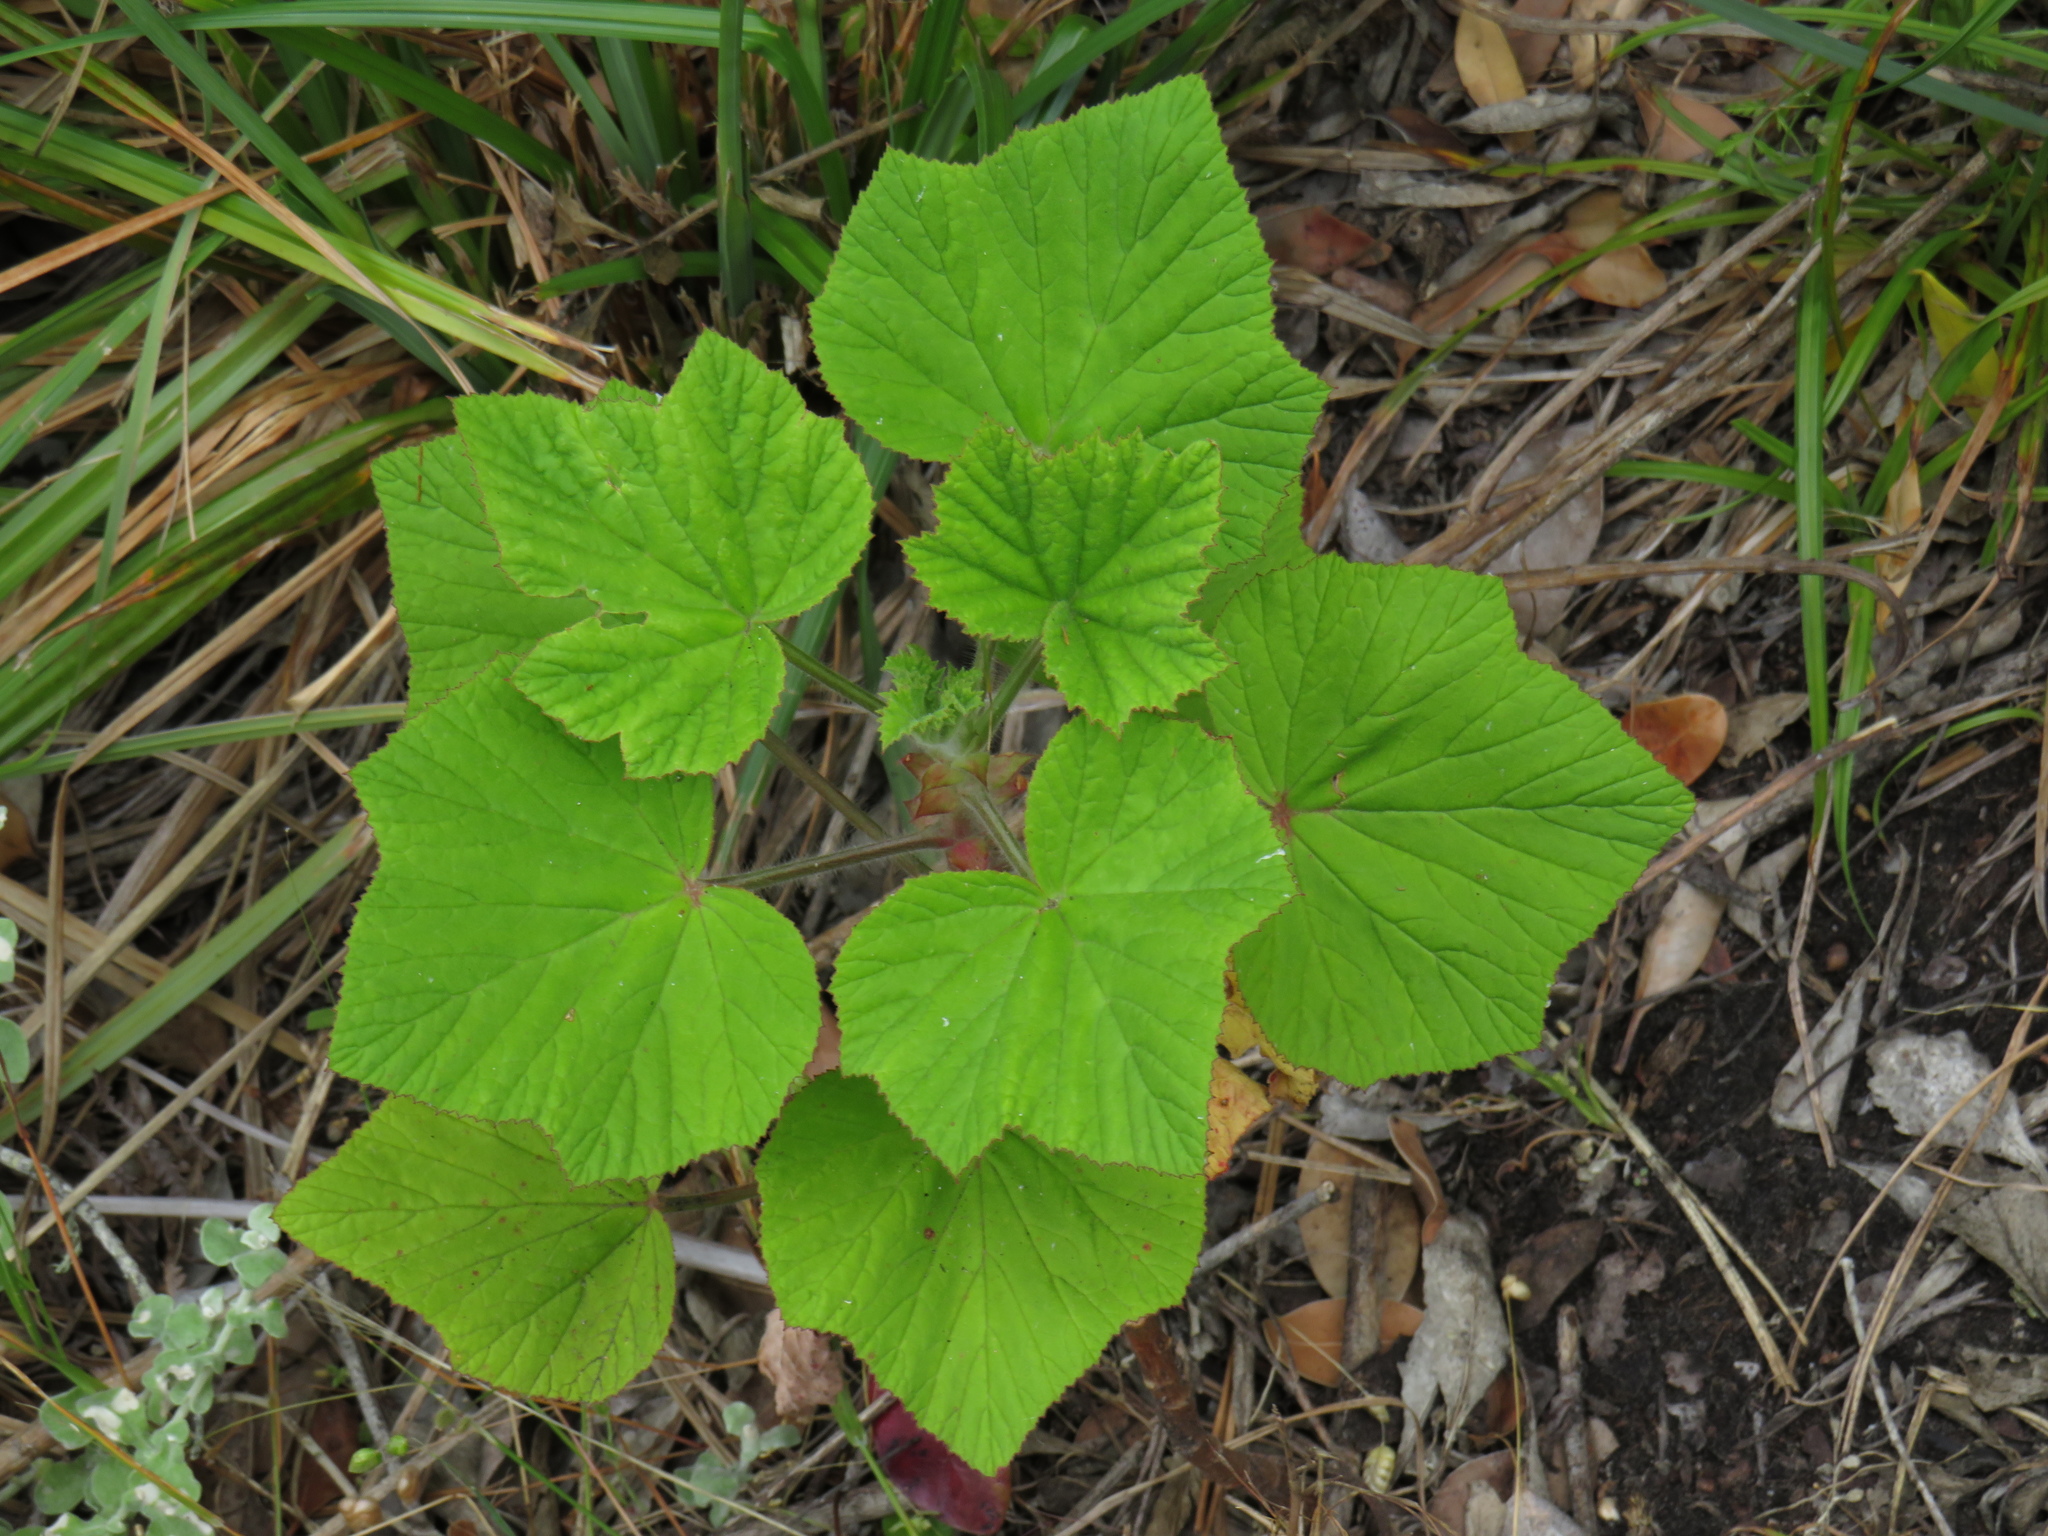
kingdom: Plantae
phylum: Tracheophyta
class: Magnoliopsida
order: Geraniales
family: Geraniaceae
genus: Pelargonium
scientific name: Pelargonium cucullatum
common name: Tree pelargonium
